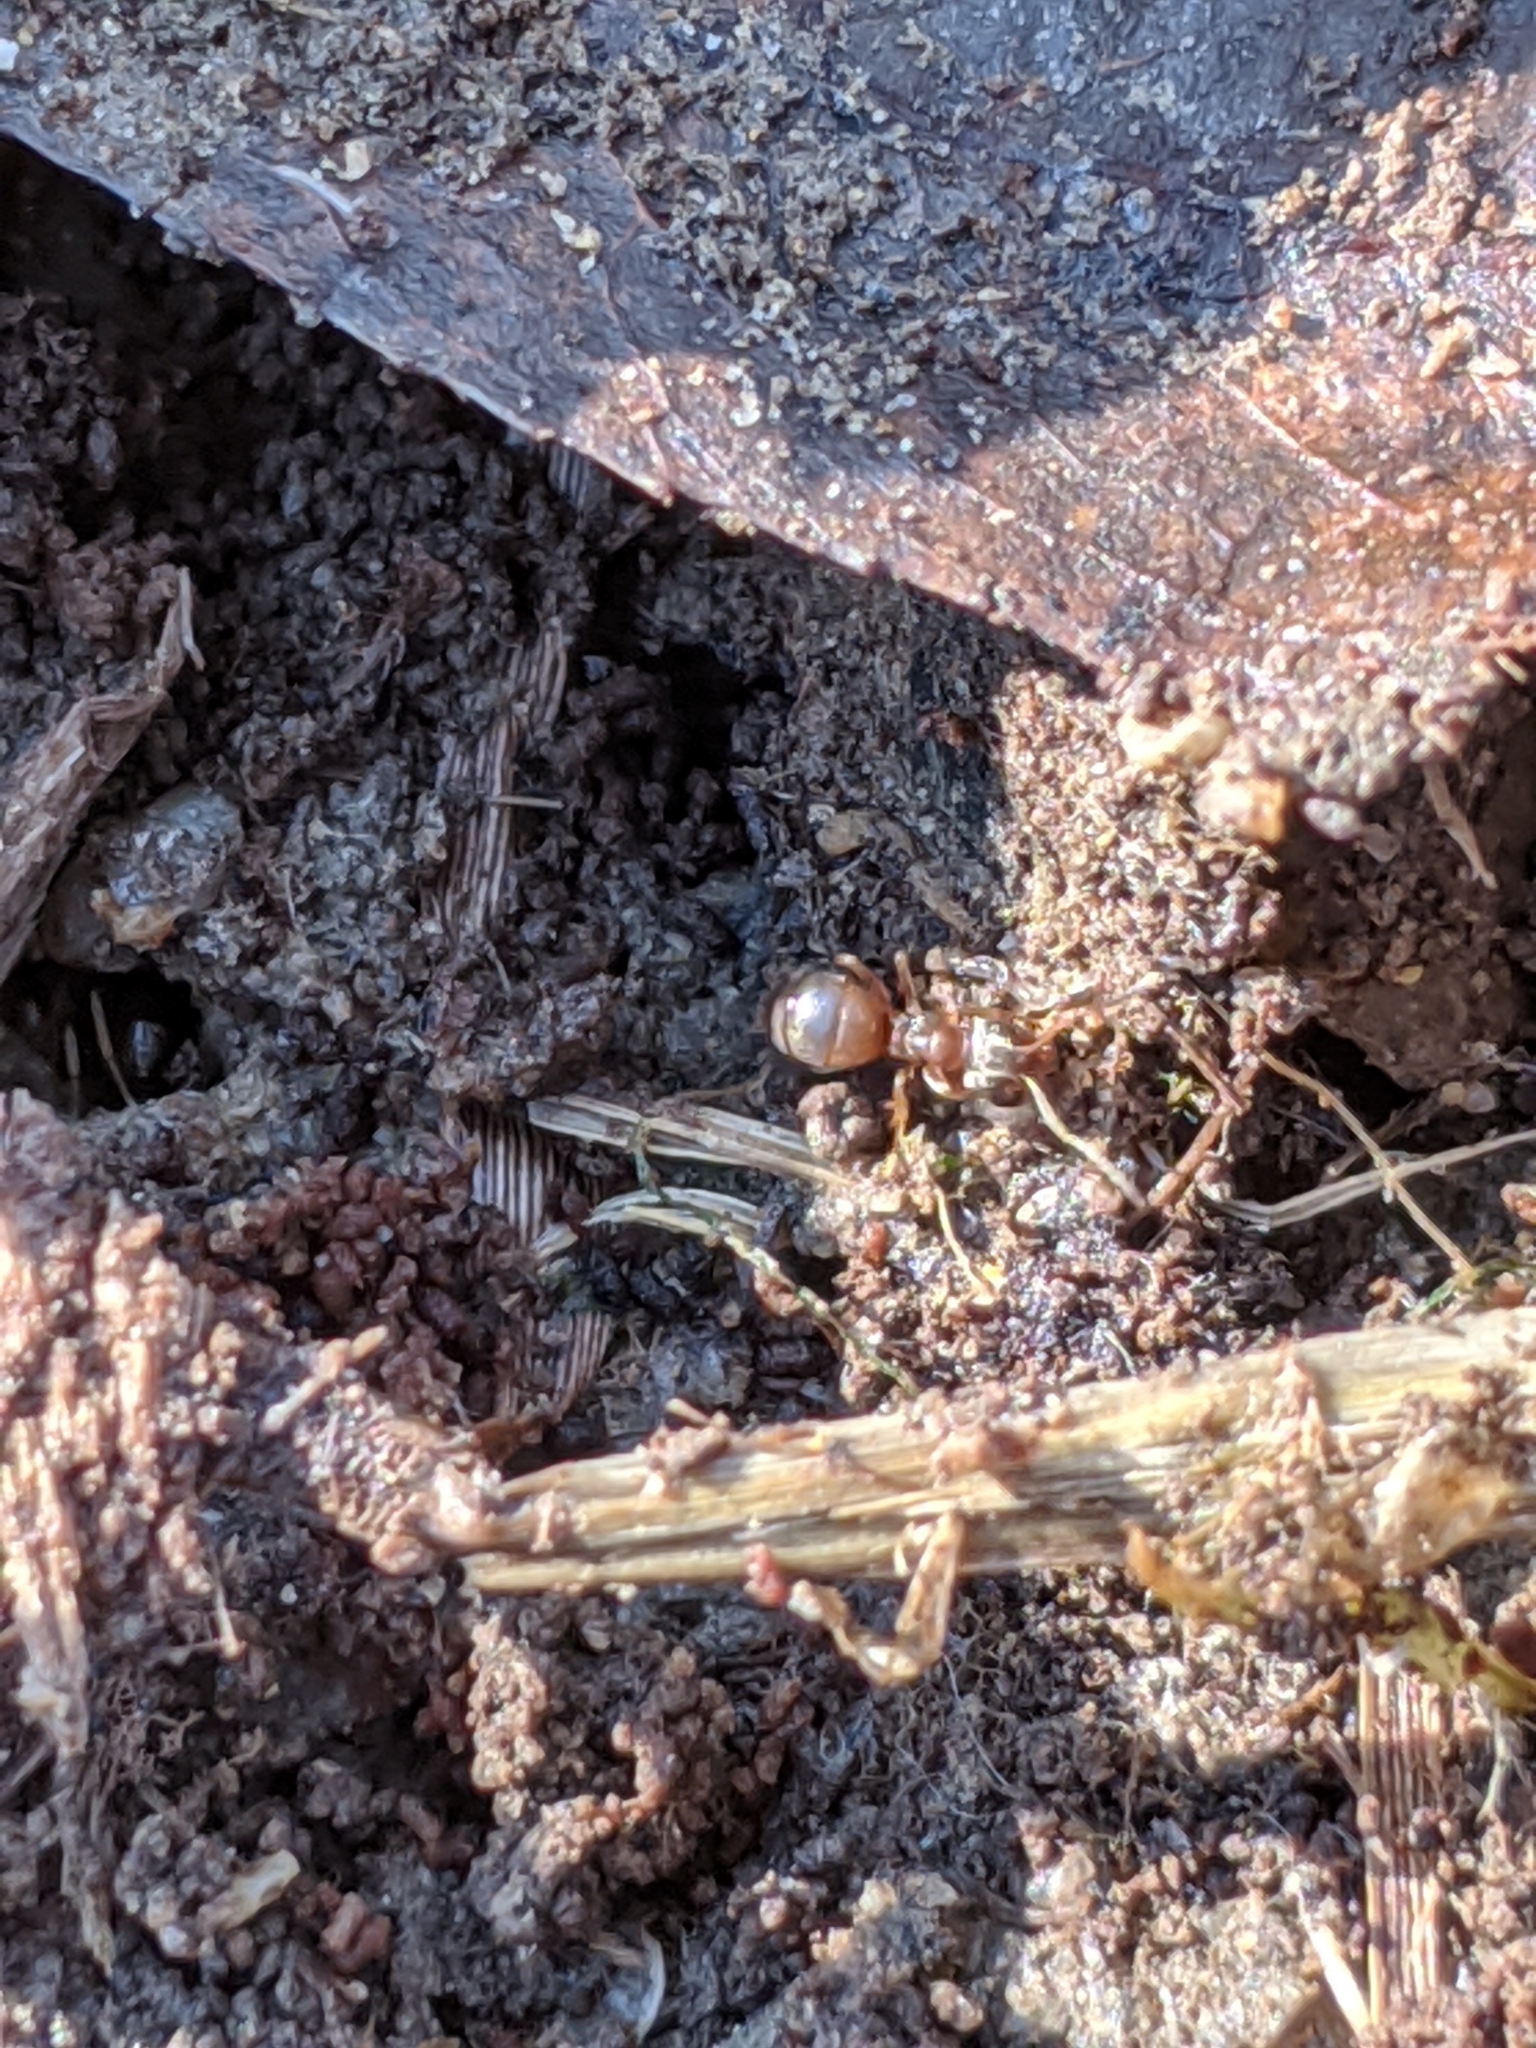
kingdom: Animalia
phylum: Arthropoda
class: Insecta
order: Hymenoptera
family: Formicidae
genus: Lasius
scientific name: Lasius
